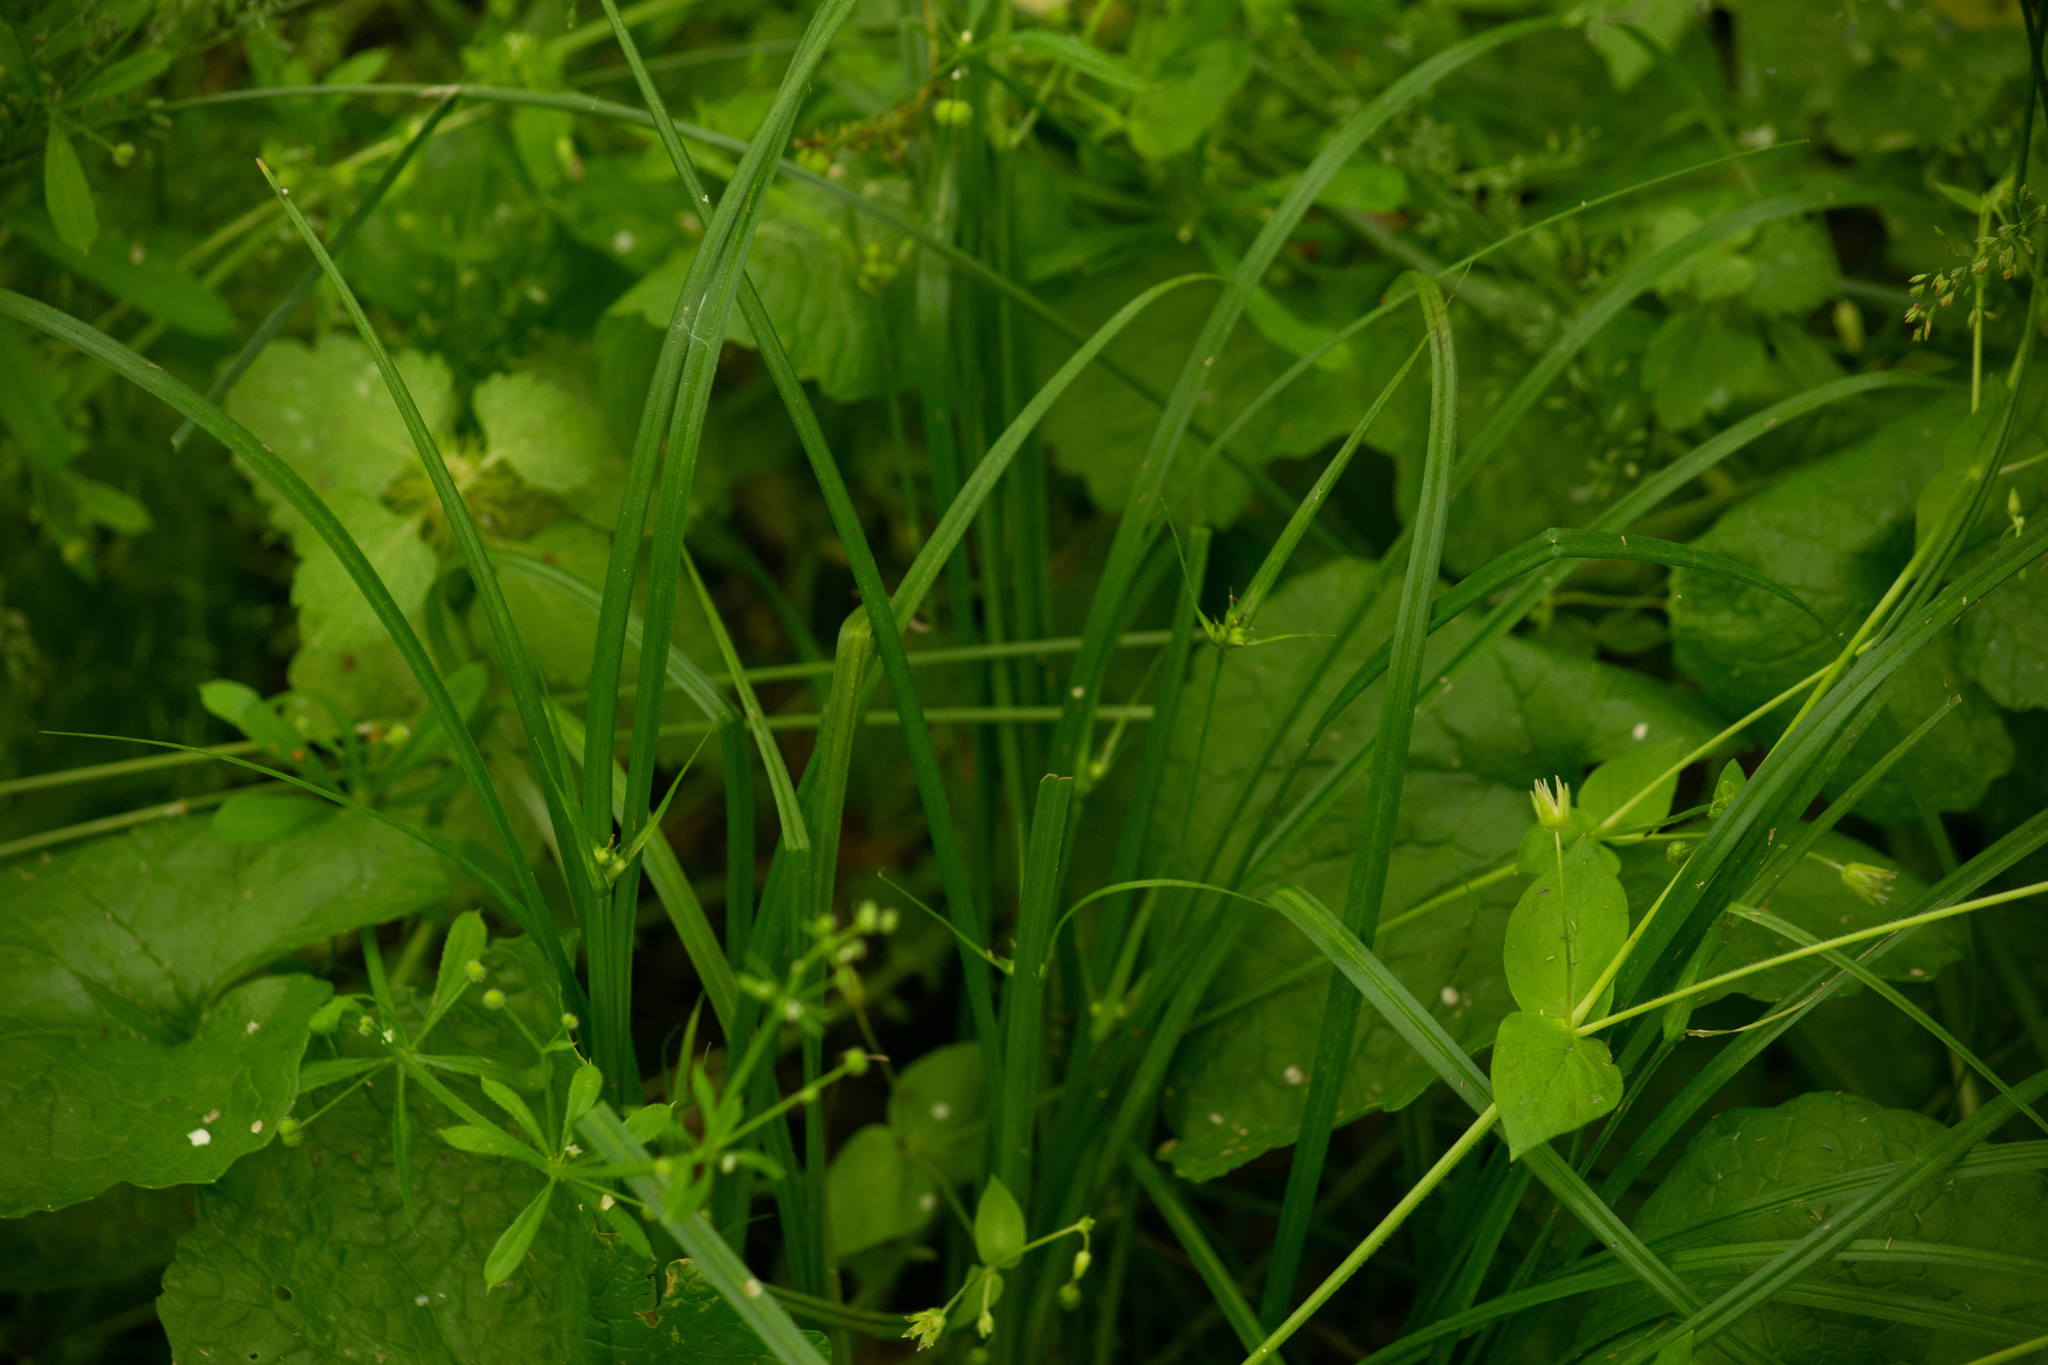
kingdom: Plantae
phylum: Tracheophyta
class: Liliopsida
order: Poales
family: Cyperaceae
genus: Carex
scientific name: Carex jamesii
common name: Grass sedge
